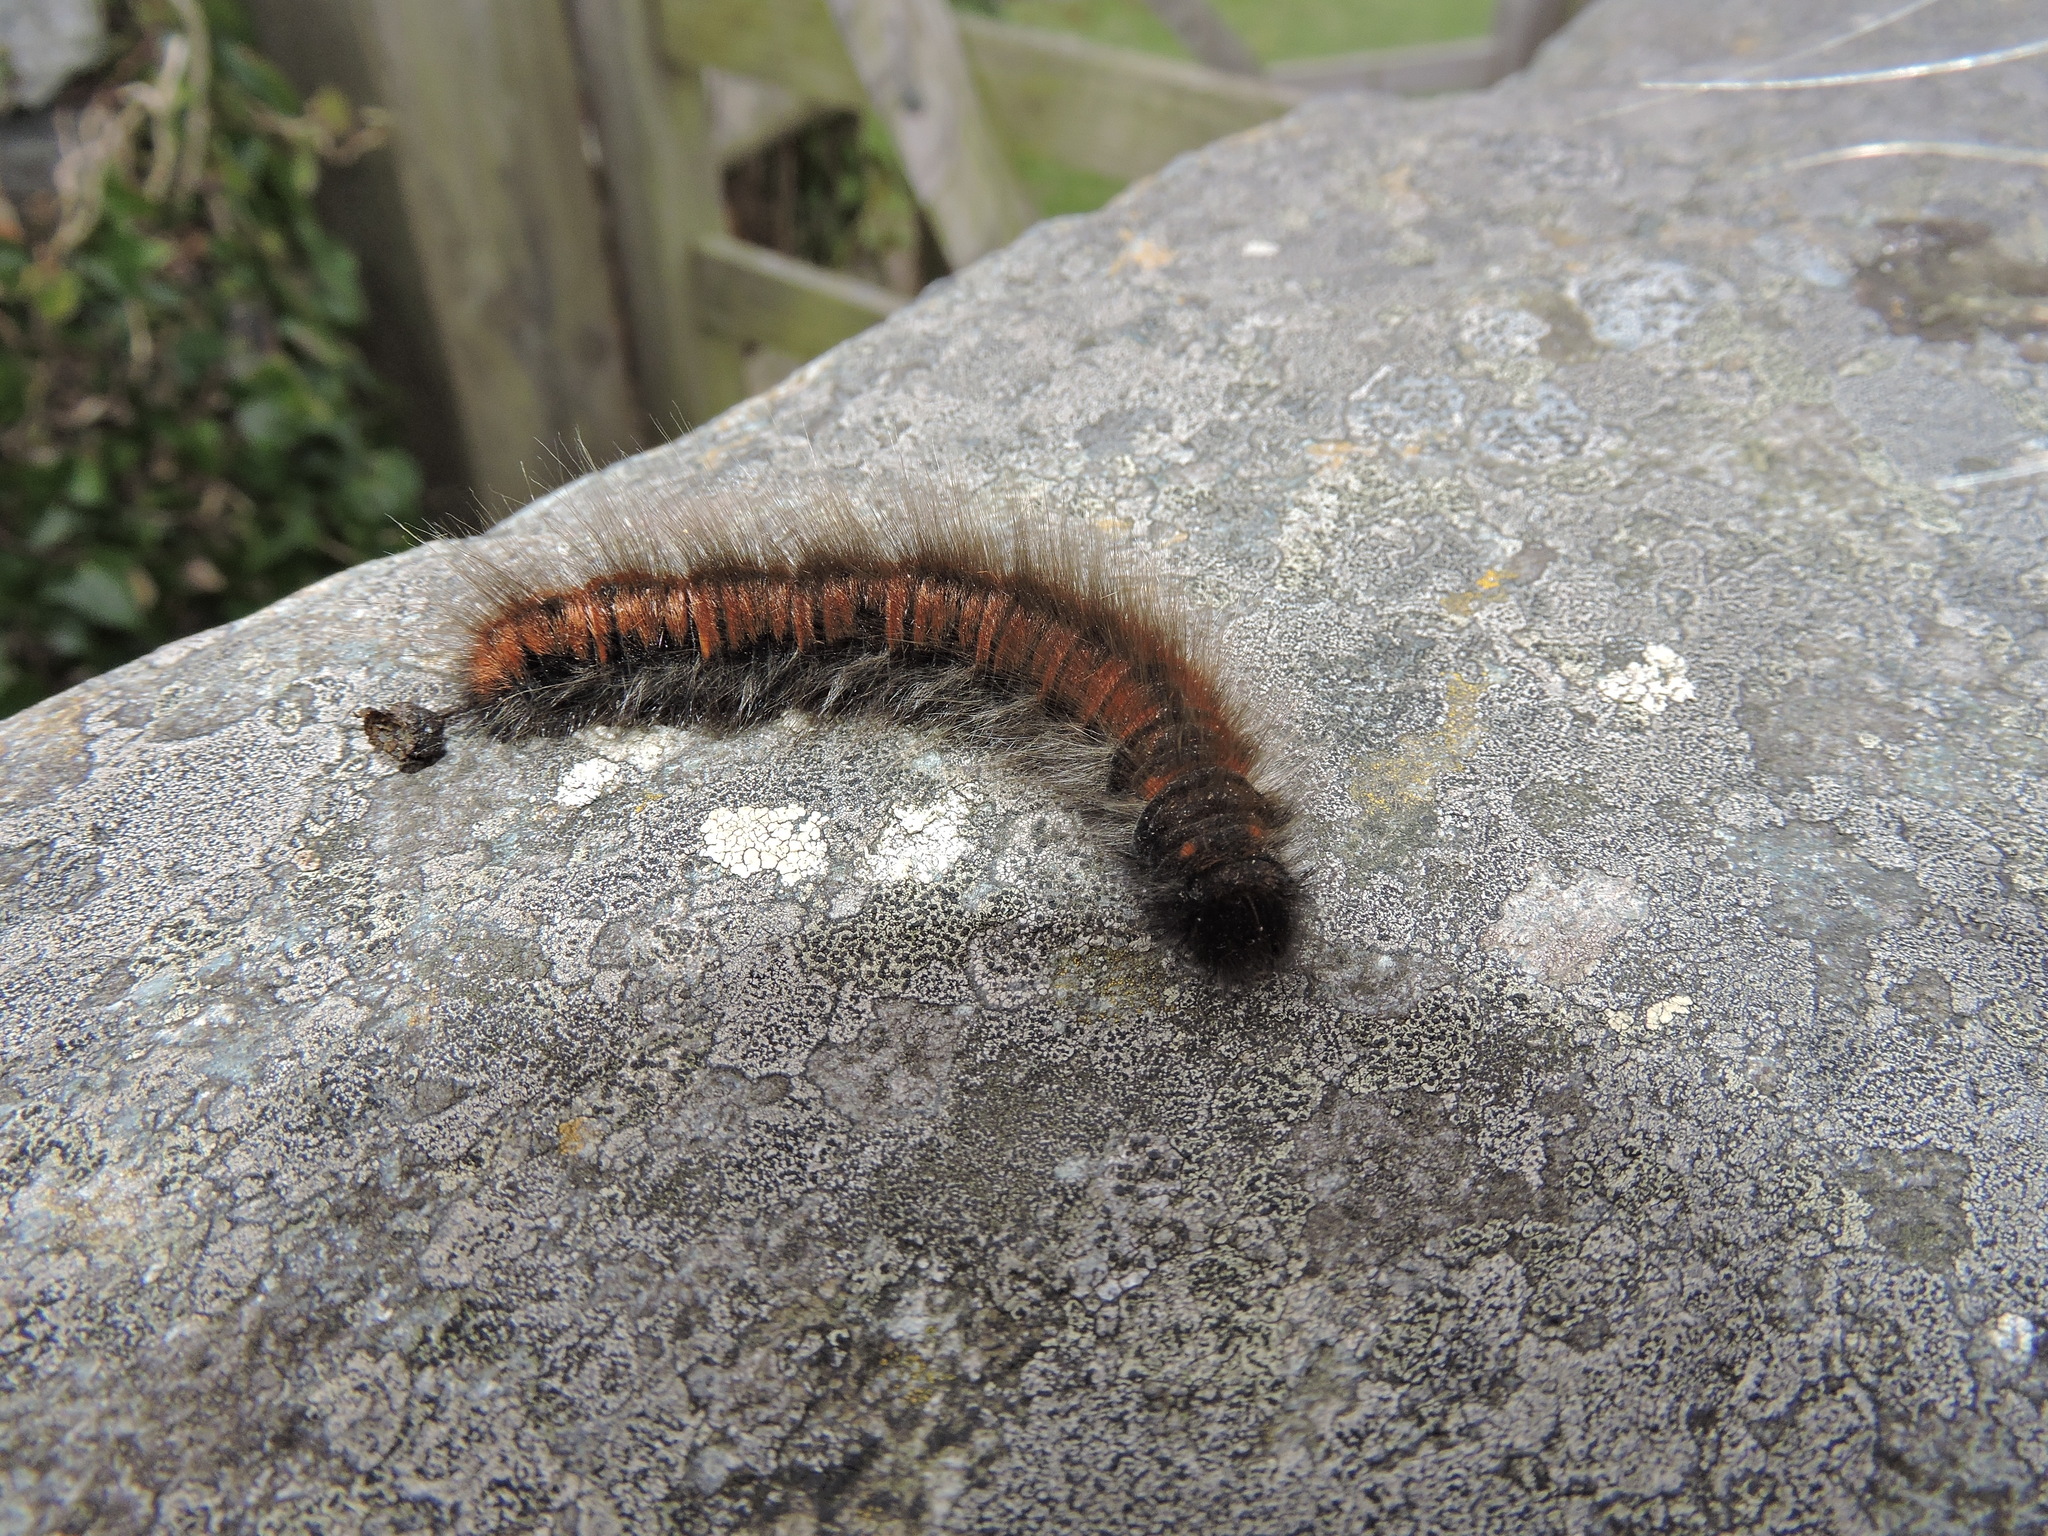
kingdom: Animalia
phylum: Arthropoda
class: Insecta
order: Lepidoptera
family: Lasiocampidae
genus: Macrothylacia
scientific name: Macrothylacia rubi
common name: Fox moth
